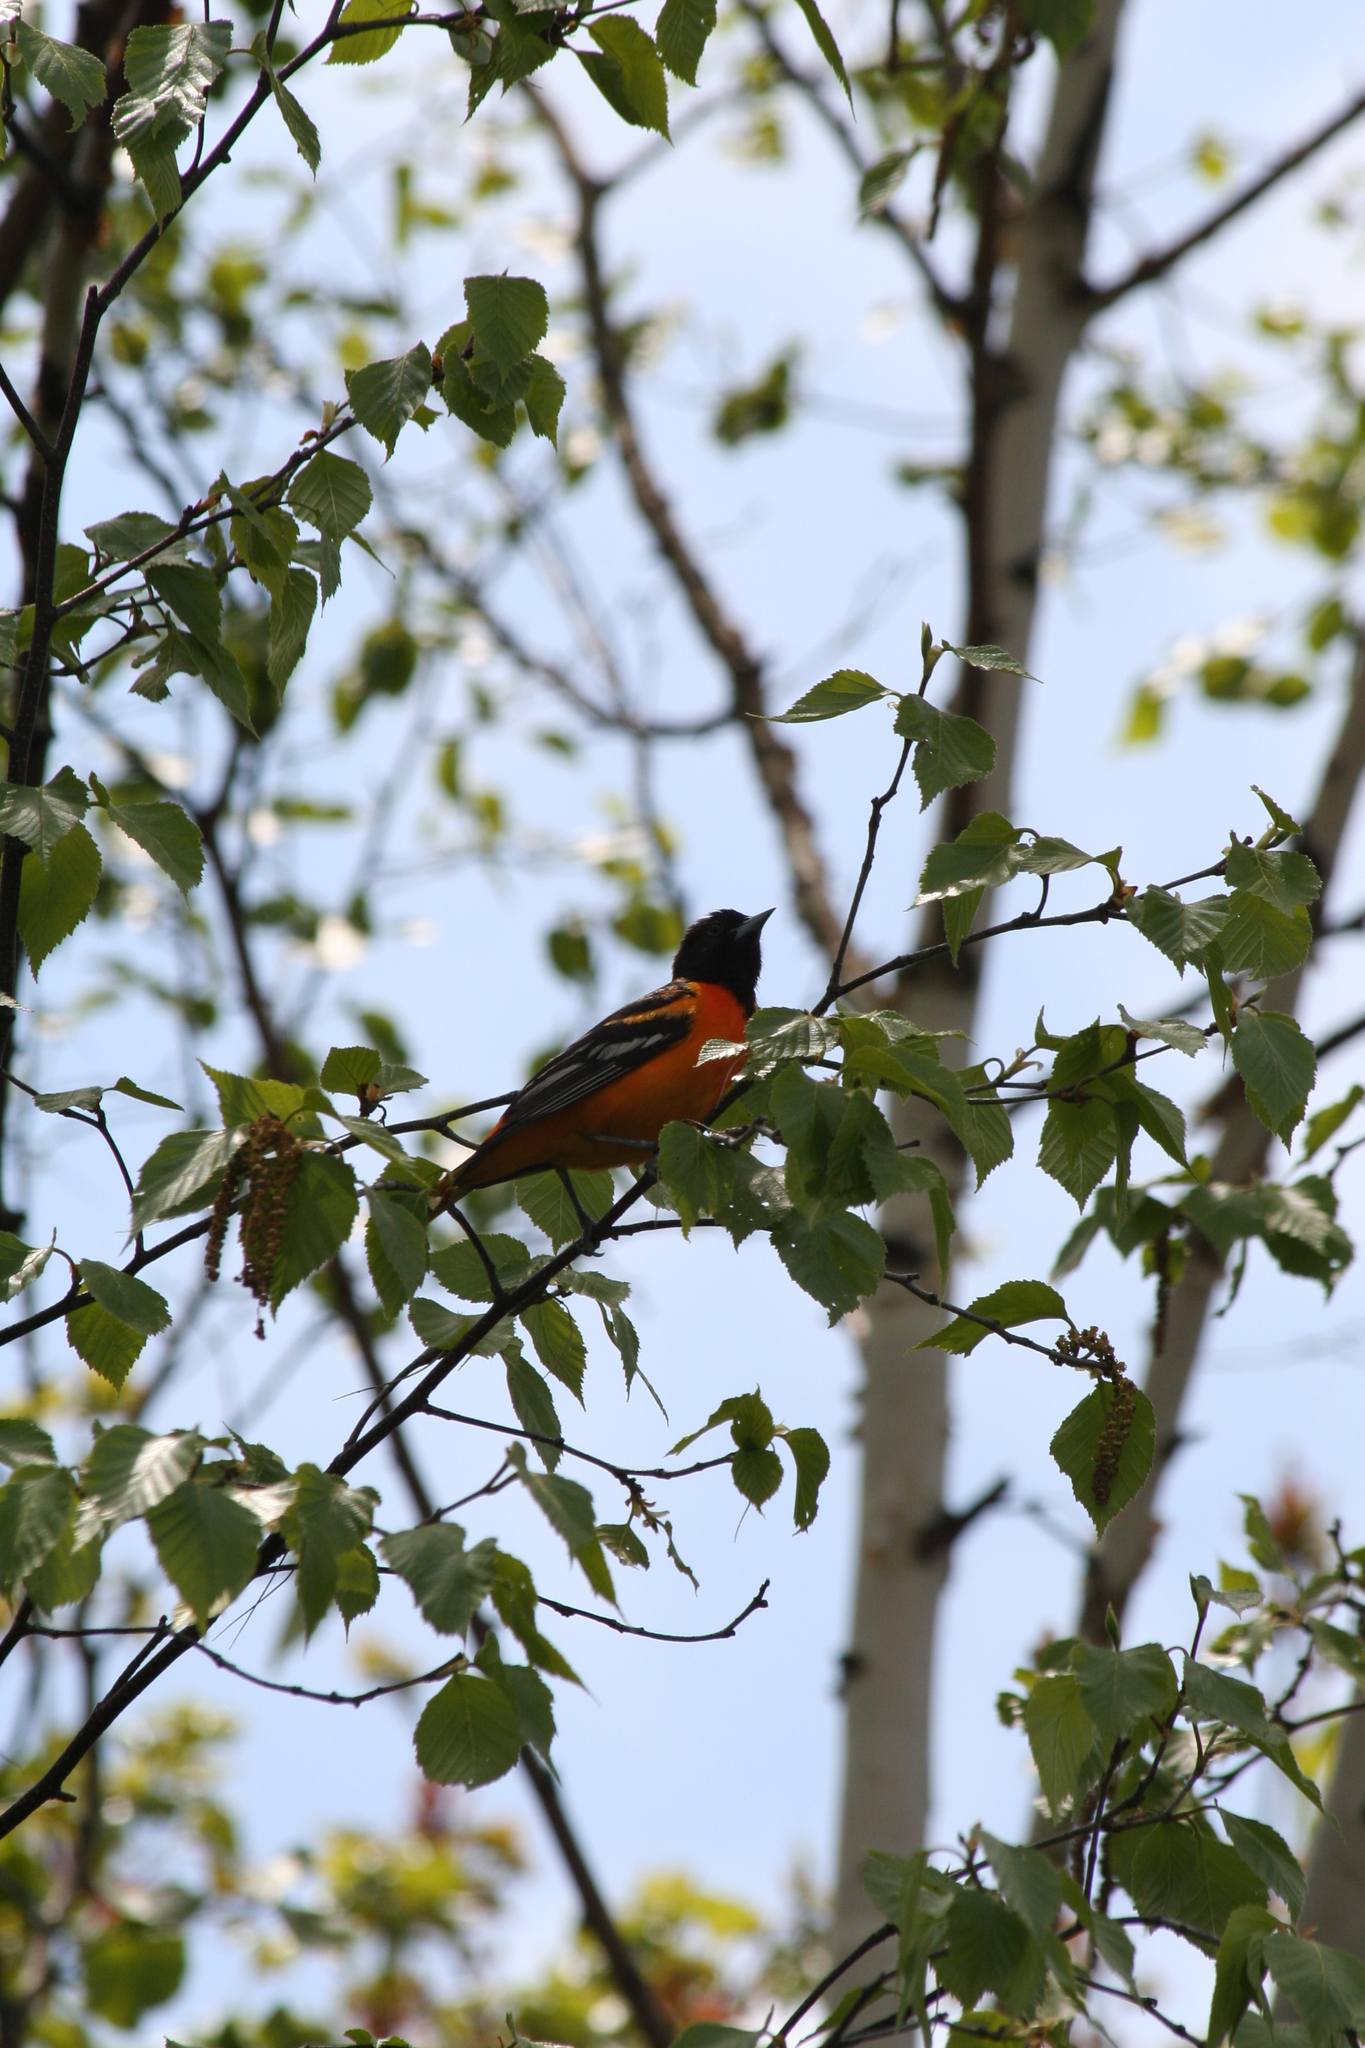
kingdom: Animalia
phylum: Chordata
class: Aves
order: Passeriformes
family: Icteridae
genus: Icterus
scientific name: Icterus galbula
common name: Baltimore oriole
